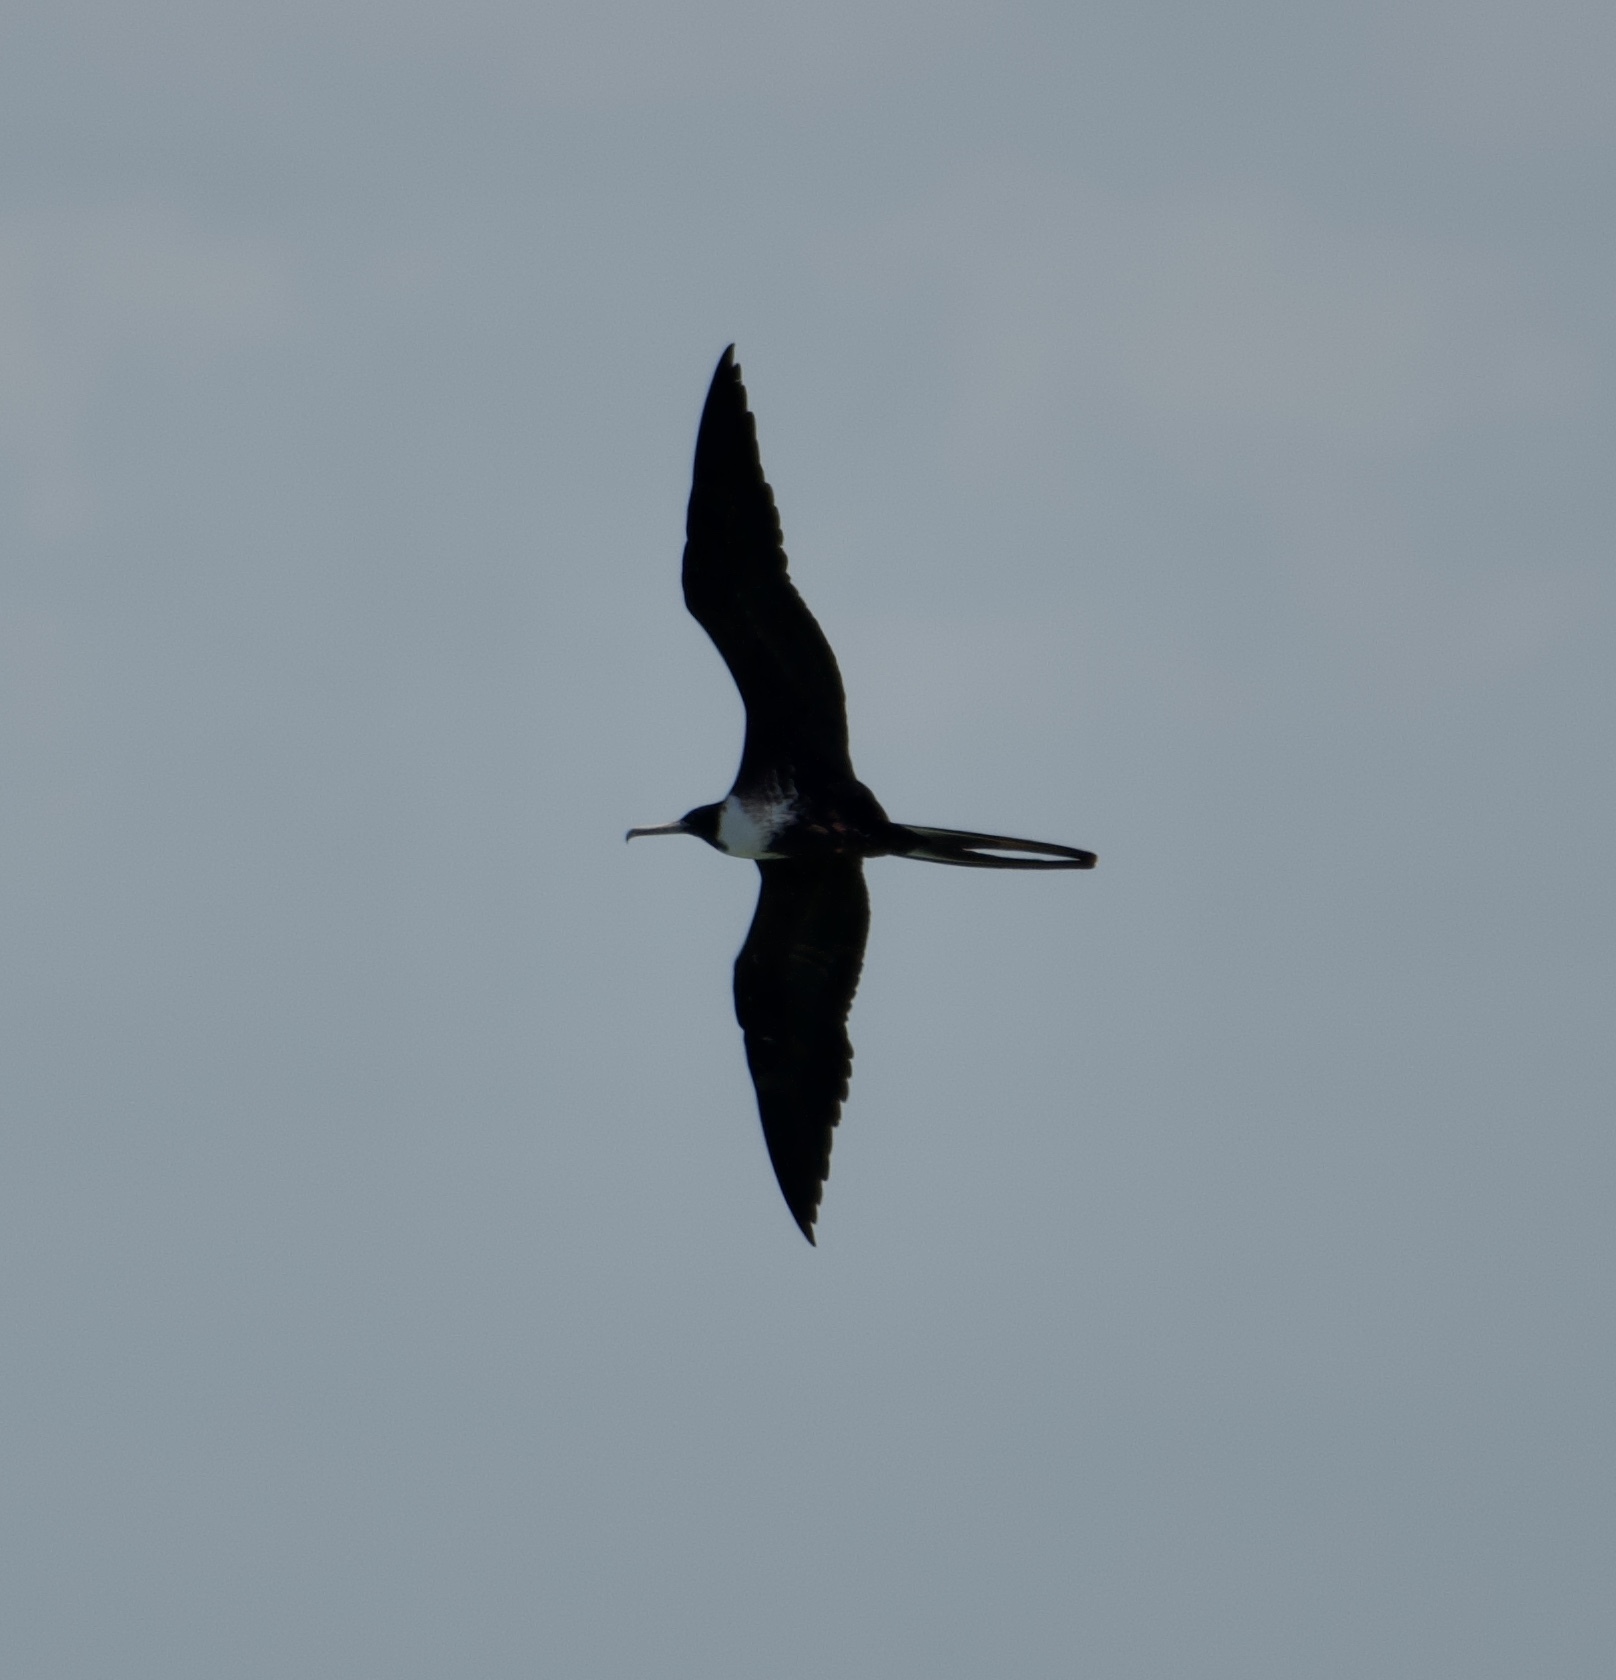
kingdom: Animalia
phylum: Chordata
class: Aves
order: Suliformes
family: Fregatidae
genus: Fregata
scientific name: Fregata magnificens
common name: Magnificent frigatebird
